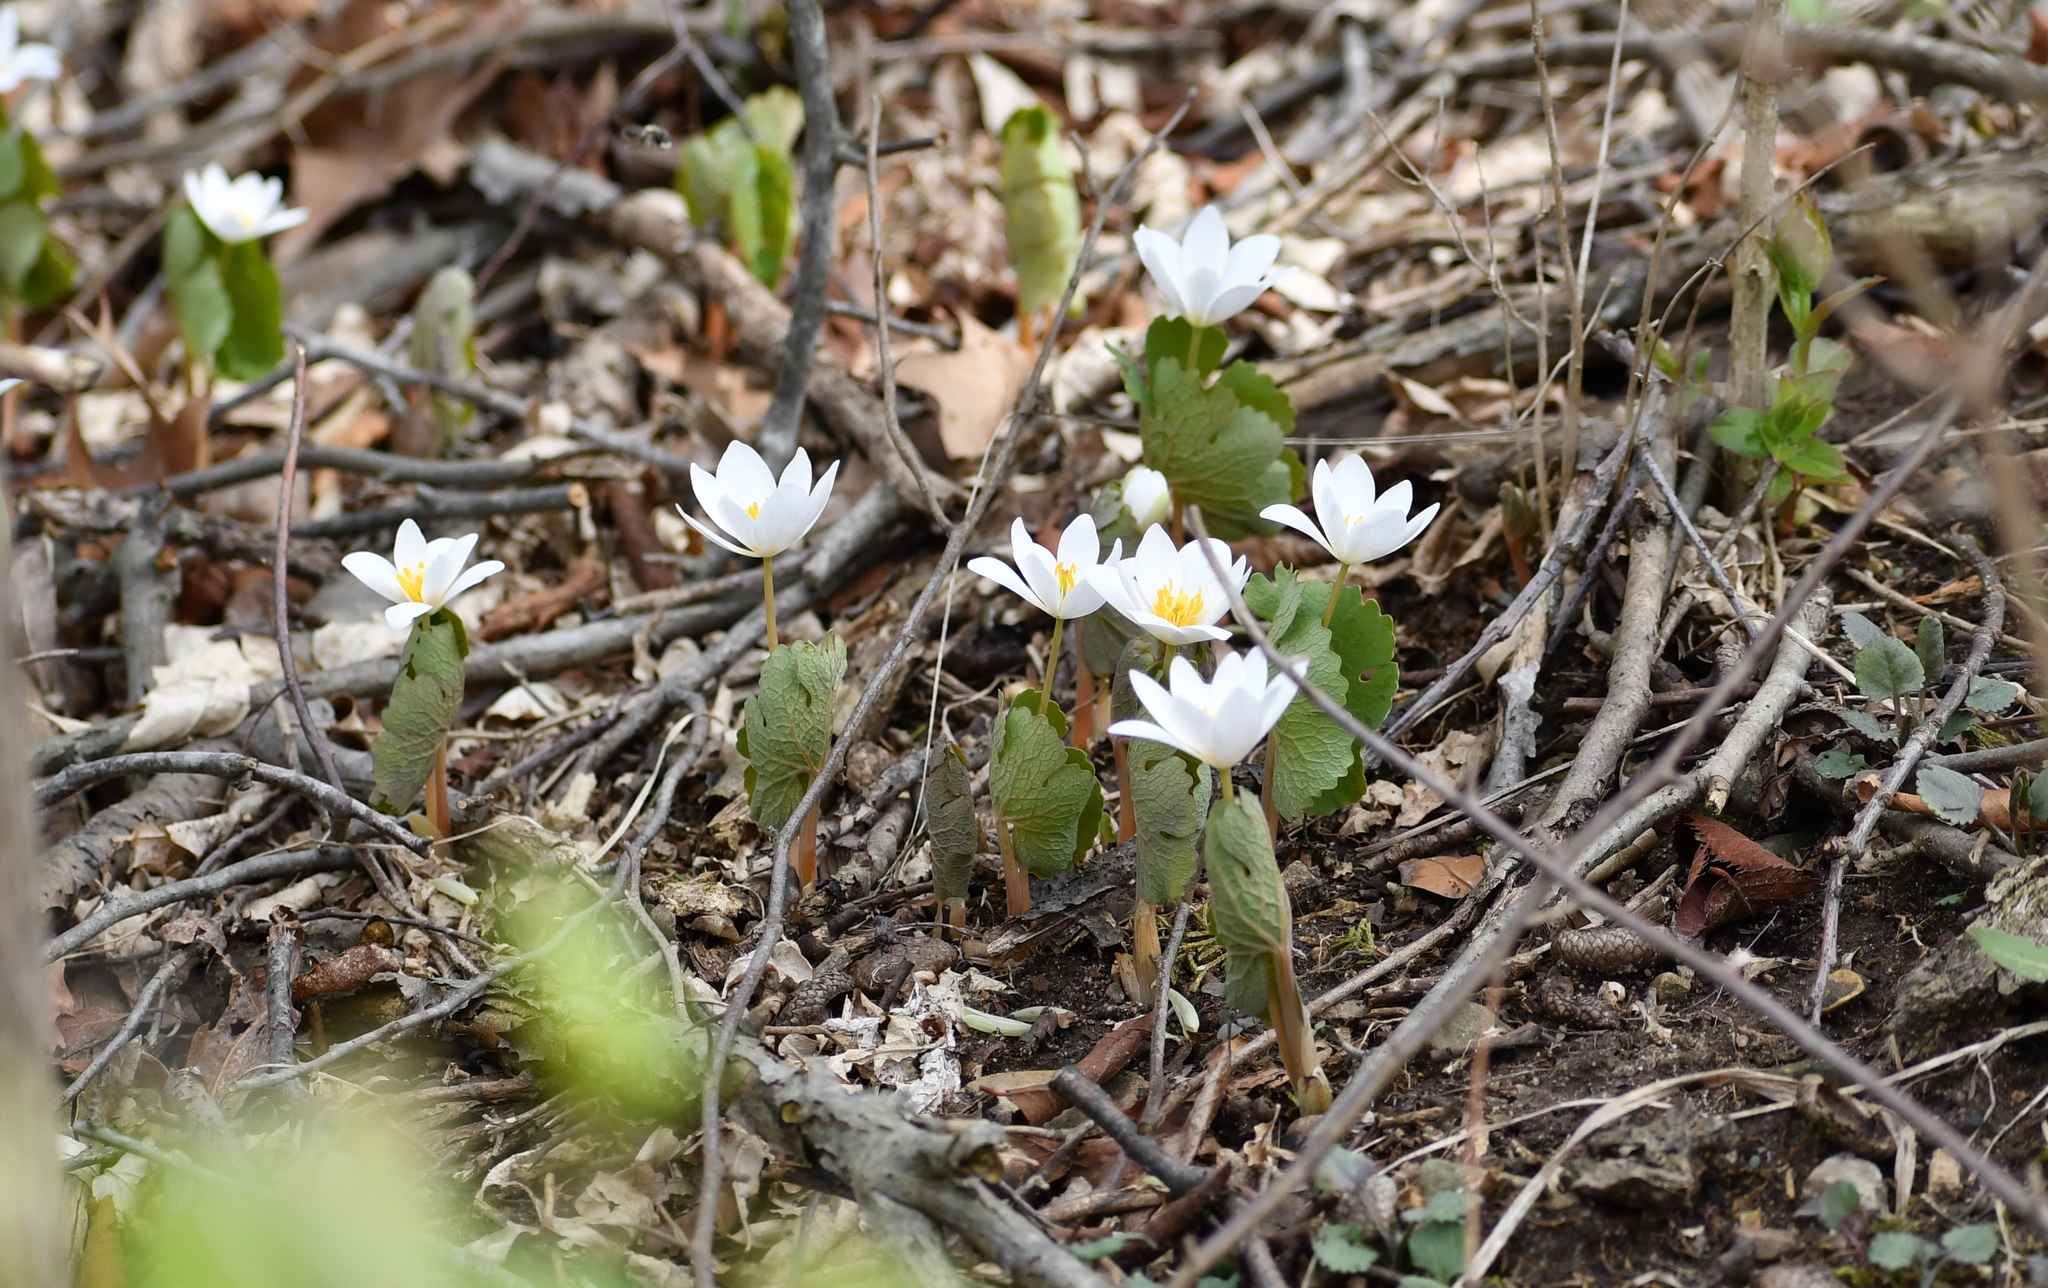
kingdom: Plantae
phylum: Tracheophyta
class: Magnoliopsida
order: Ranunculales
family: Papaveraceae
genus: Sanguinaria
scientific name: Sanguinaria canadensis
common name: Bloodroot
